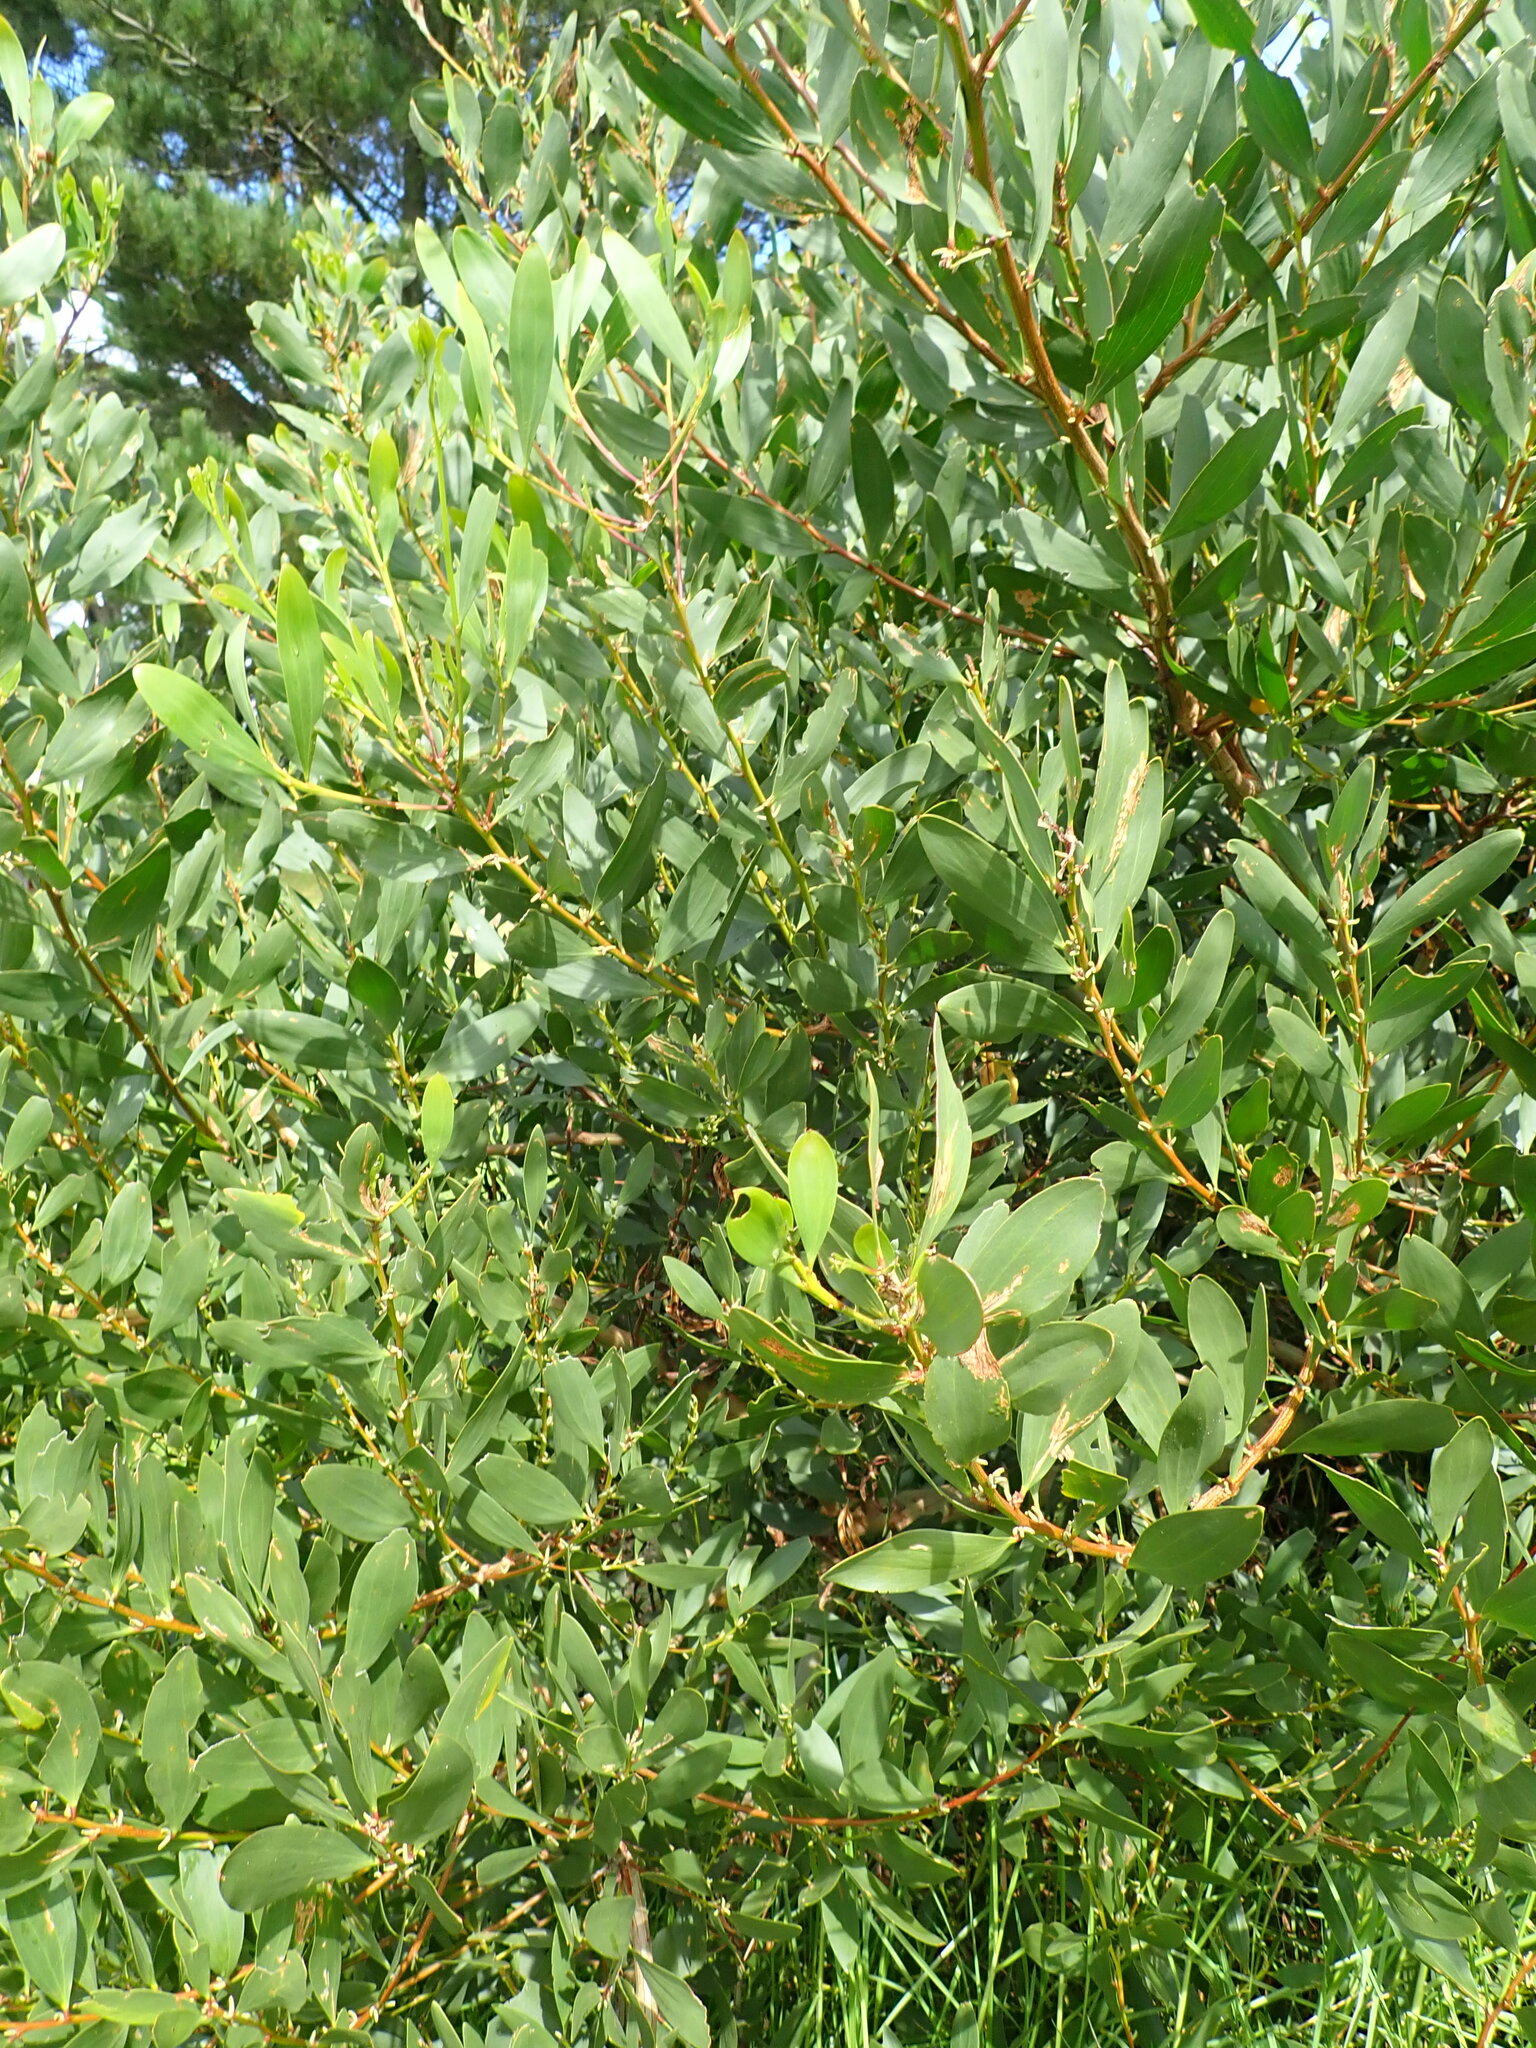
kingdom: Plantae
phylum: Tracheophyta
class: Magnoliopsida
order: Fabales
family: Fabaceae
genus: Acacia
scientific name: Acacia longifolia
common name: Sydney golden wattle
